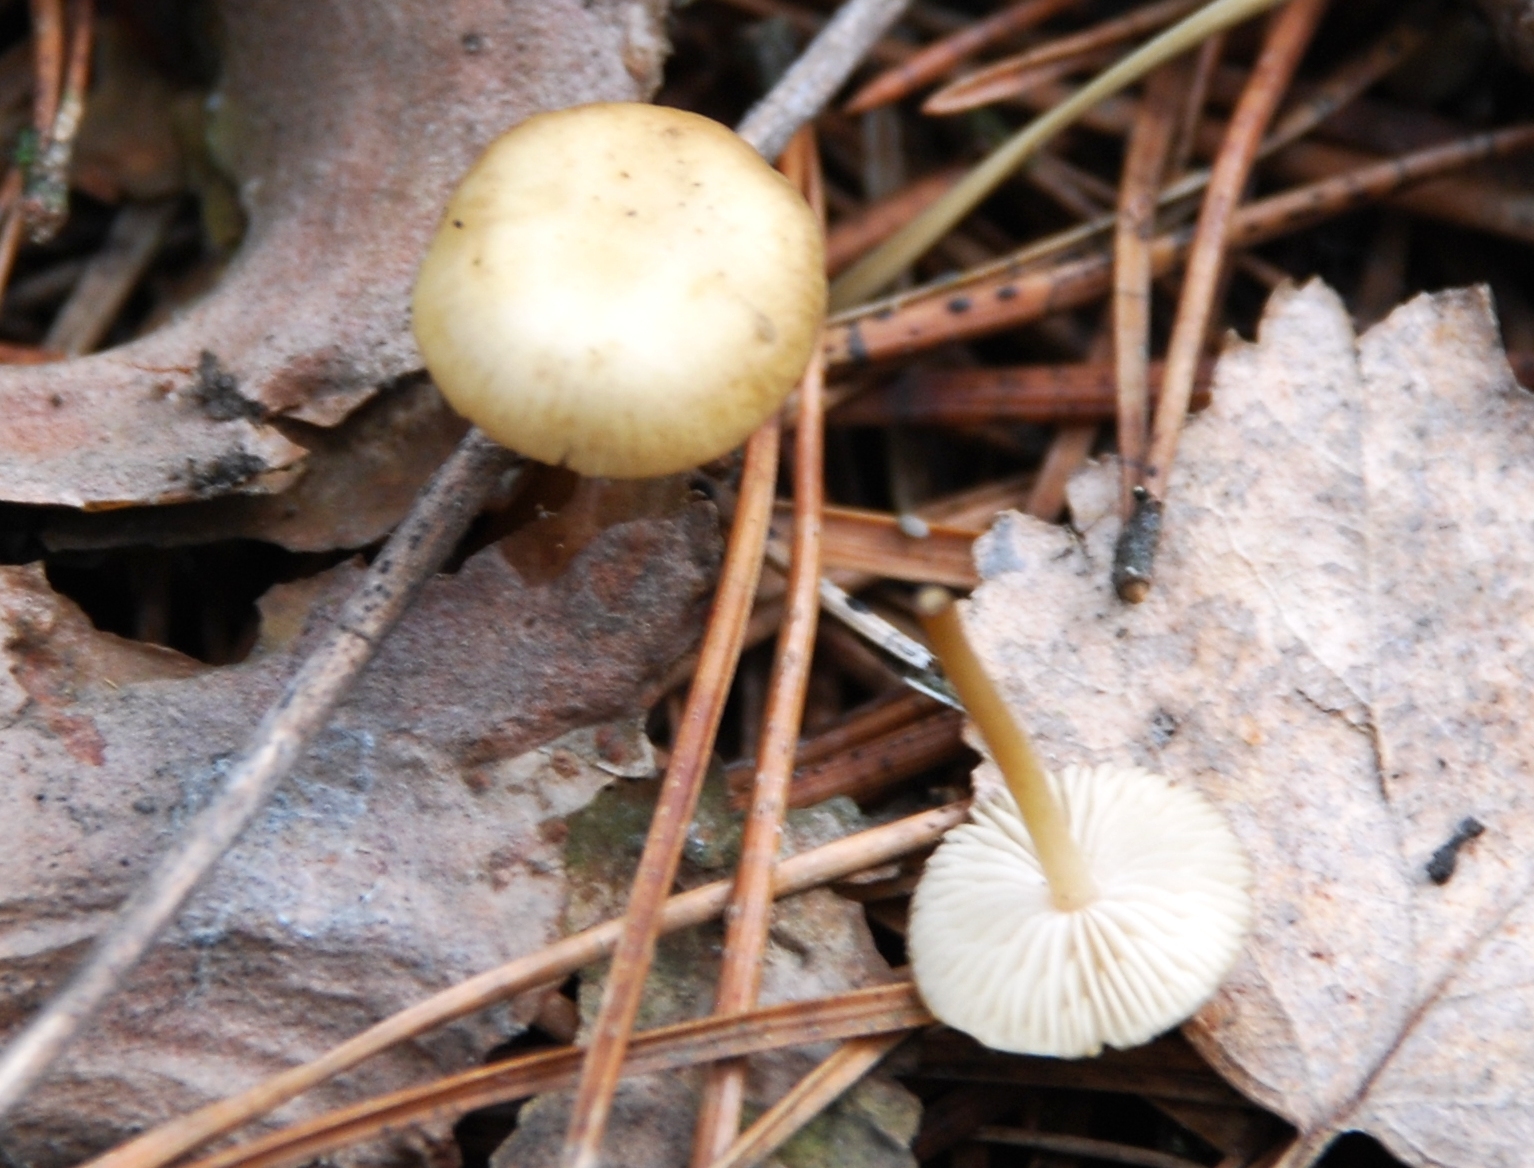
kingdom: Fungi
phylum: Basidiomycota
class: Agaricomycetes
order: Agaricales
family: Physalacriaceae
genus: Strobilurus
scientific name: Strobilurus tenacellus
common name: Pinecone cap
